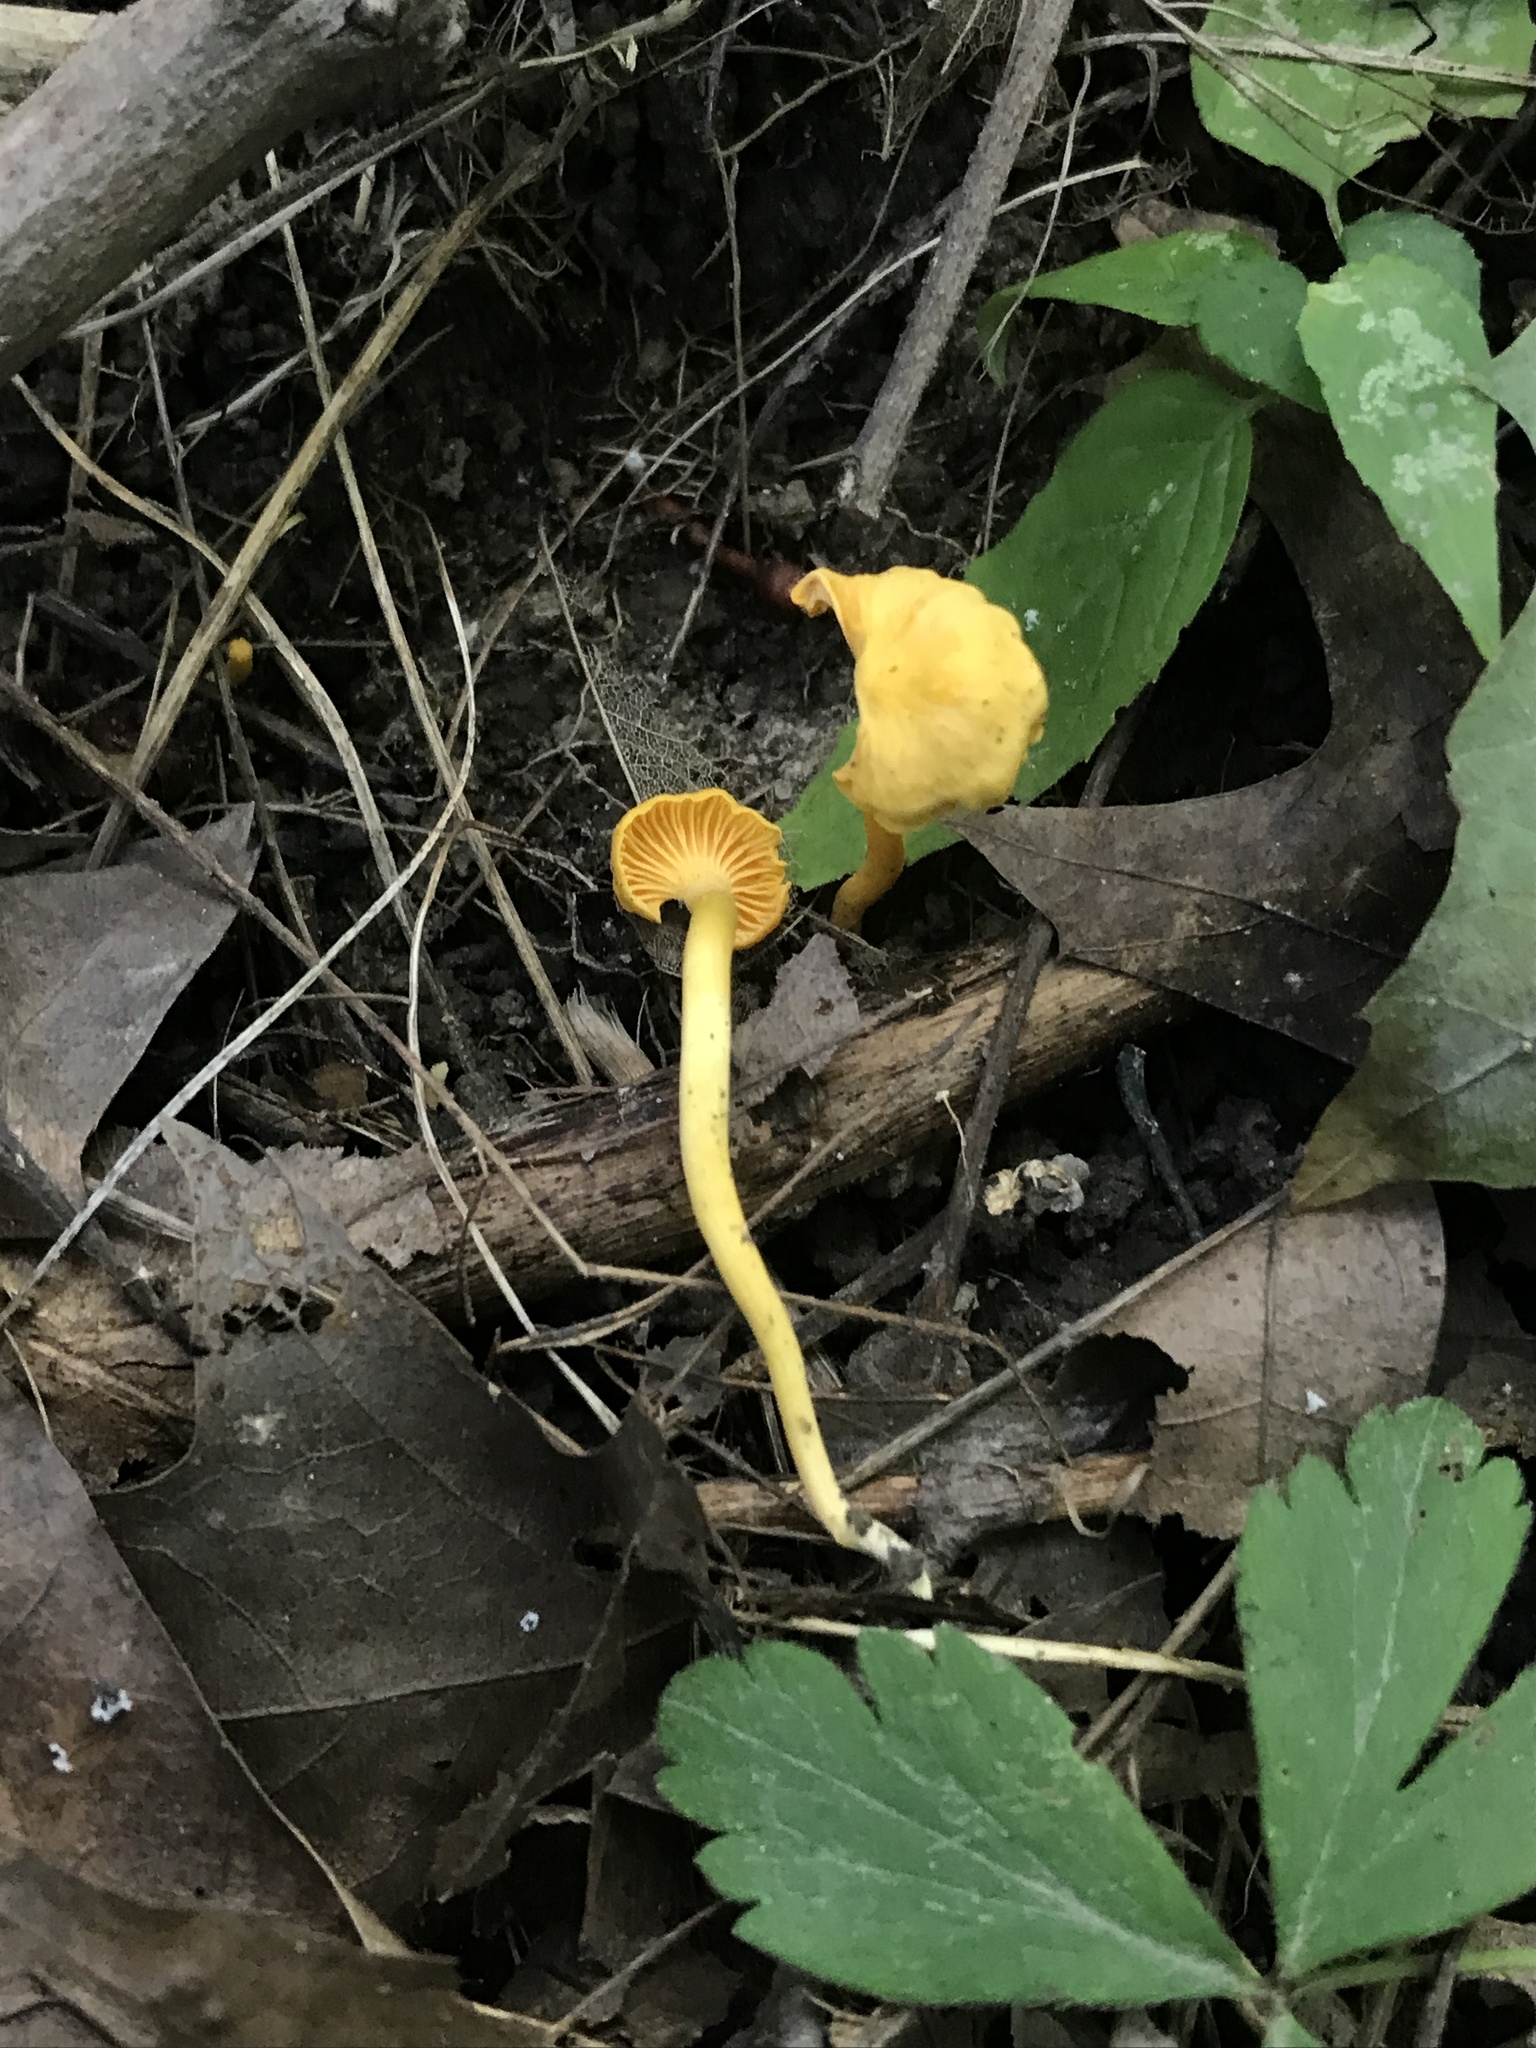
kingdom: Fungi
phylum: Basidiomycota
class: Agaricomycetes
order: Cantharellales
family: Hydnaceae
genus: Cantharellus
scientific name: Cantharellus minor
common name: Small chanterelle
